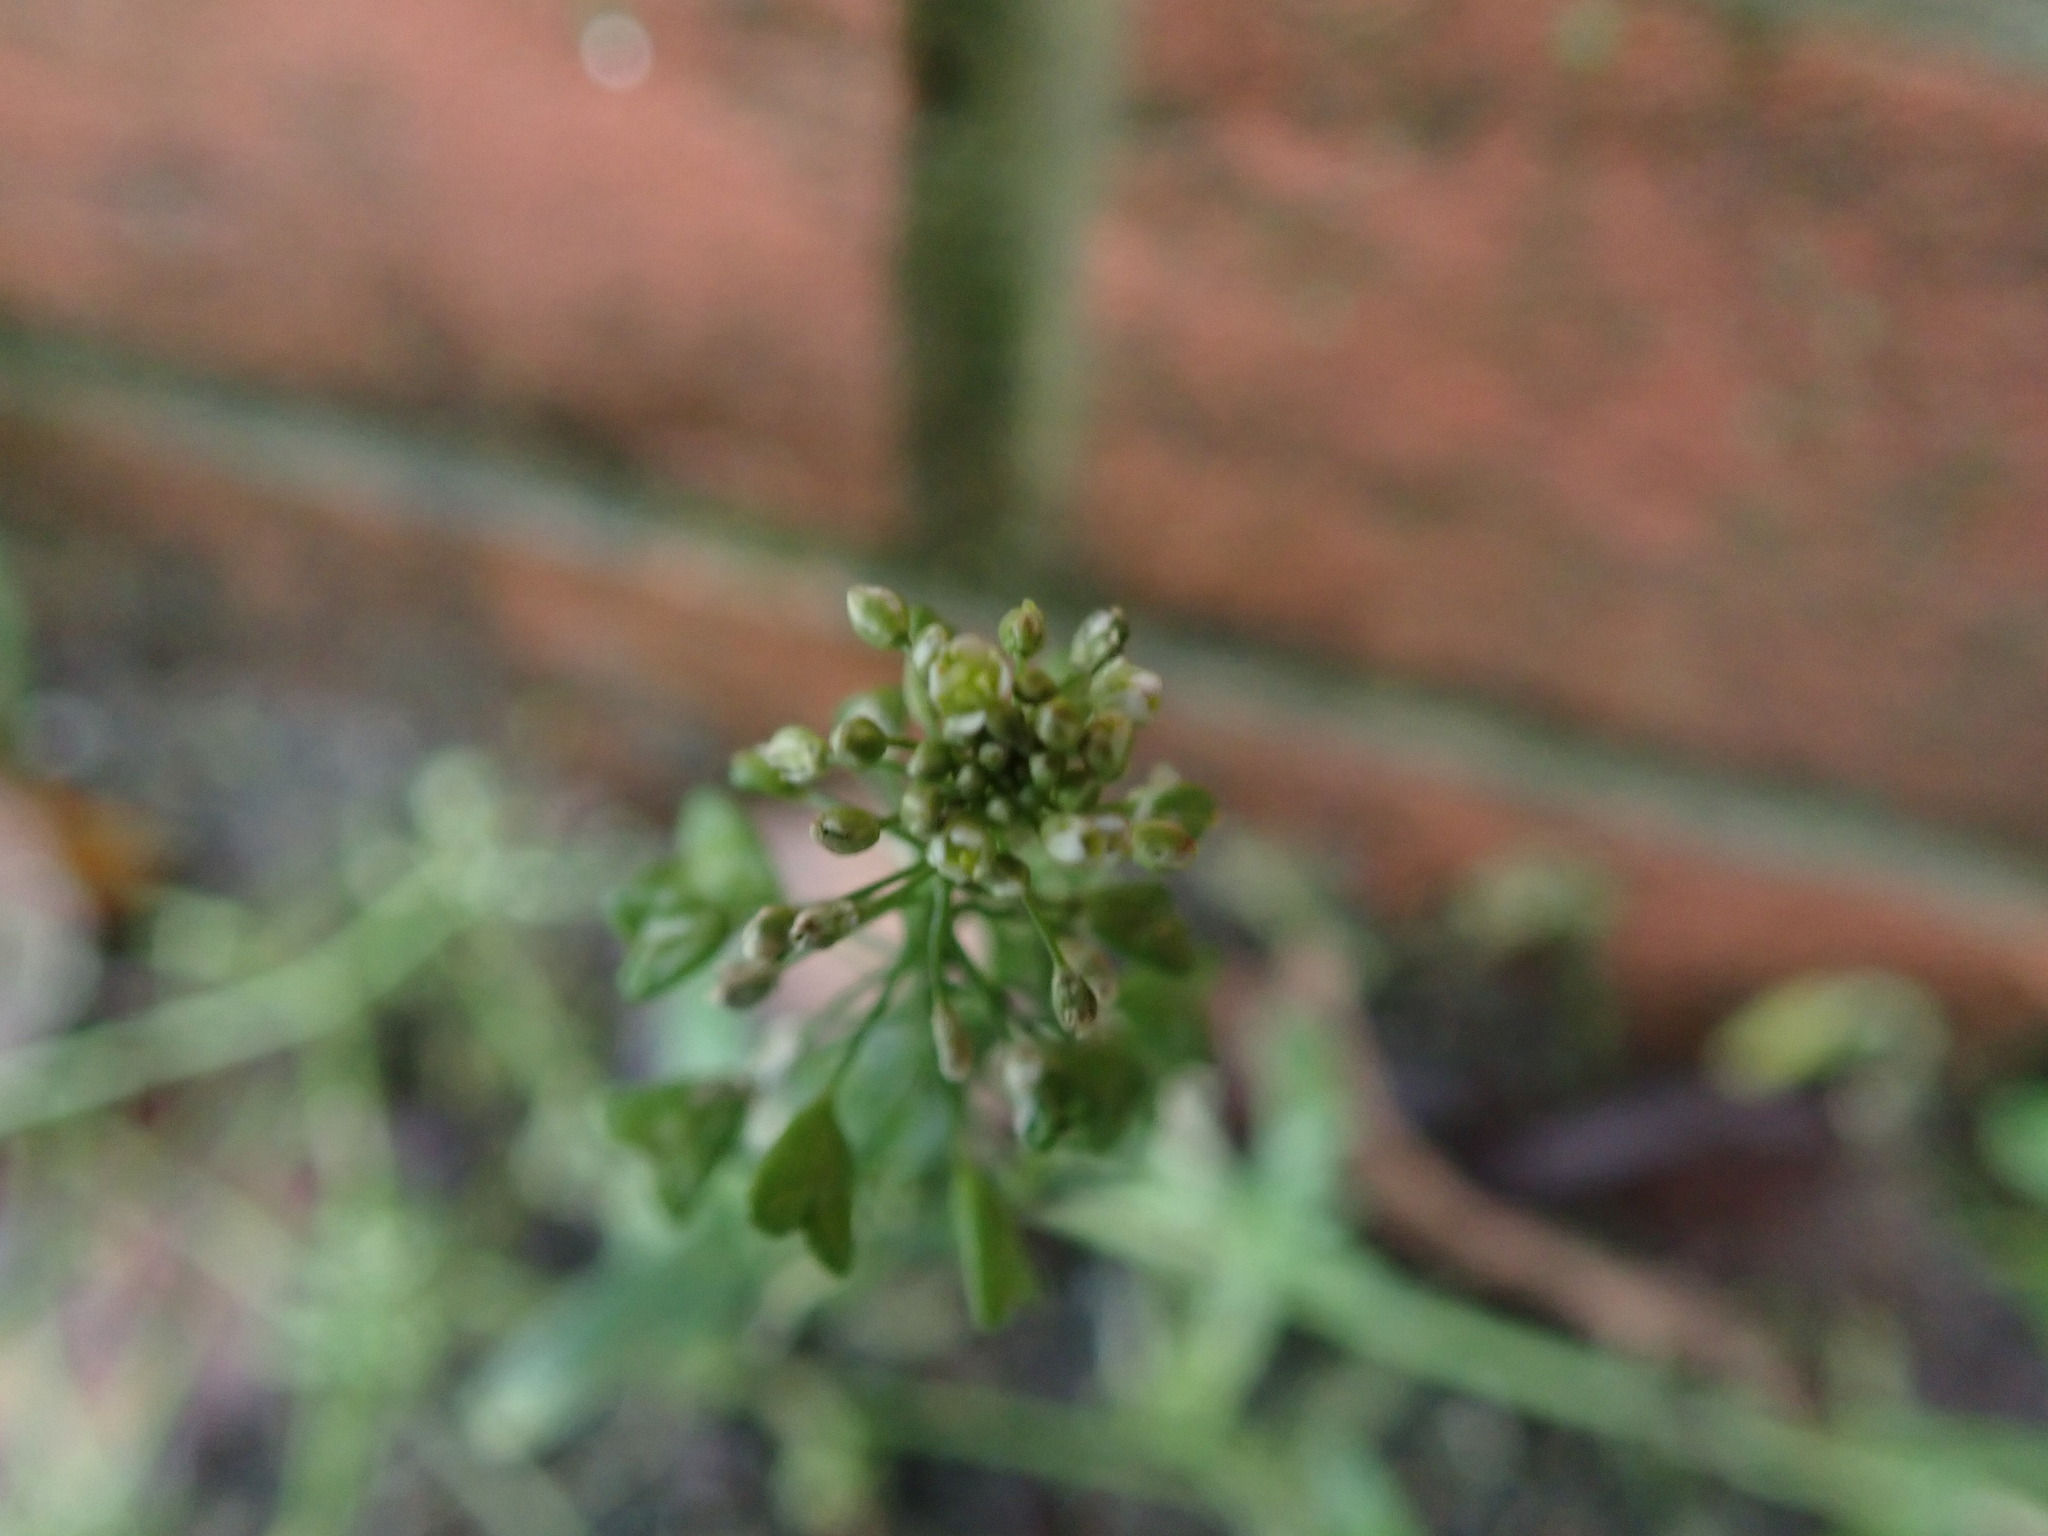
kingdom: Plantae
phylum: Tracheophyta
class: Magnoliopsida
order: Brassicales
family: Brassicaceae
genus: Capsella
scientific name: Capsella bursa-pastoris
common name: Shepherd's purse
